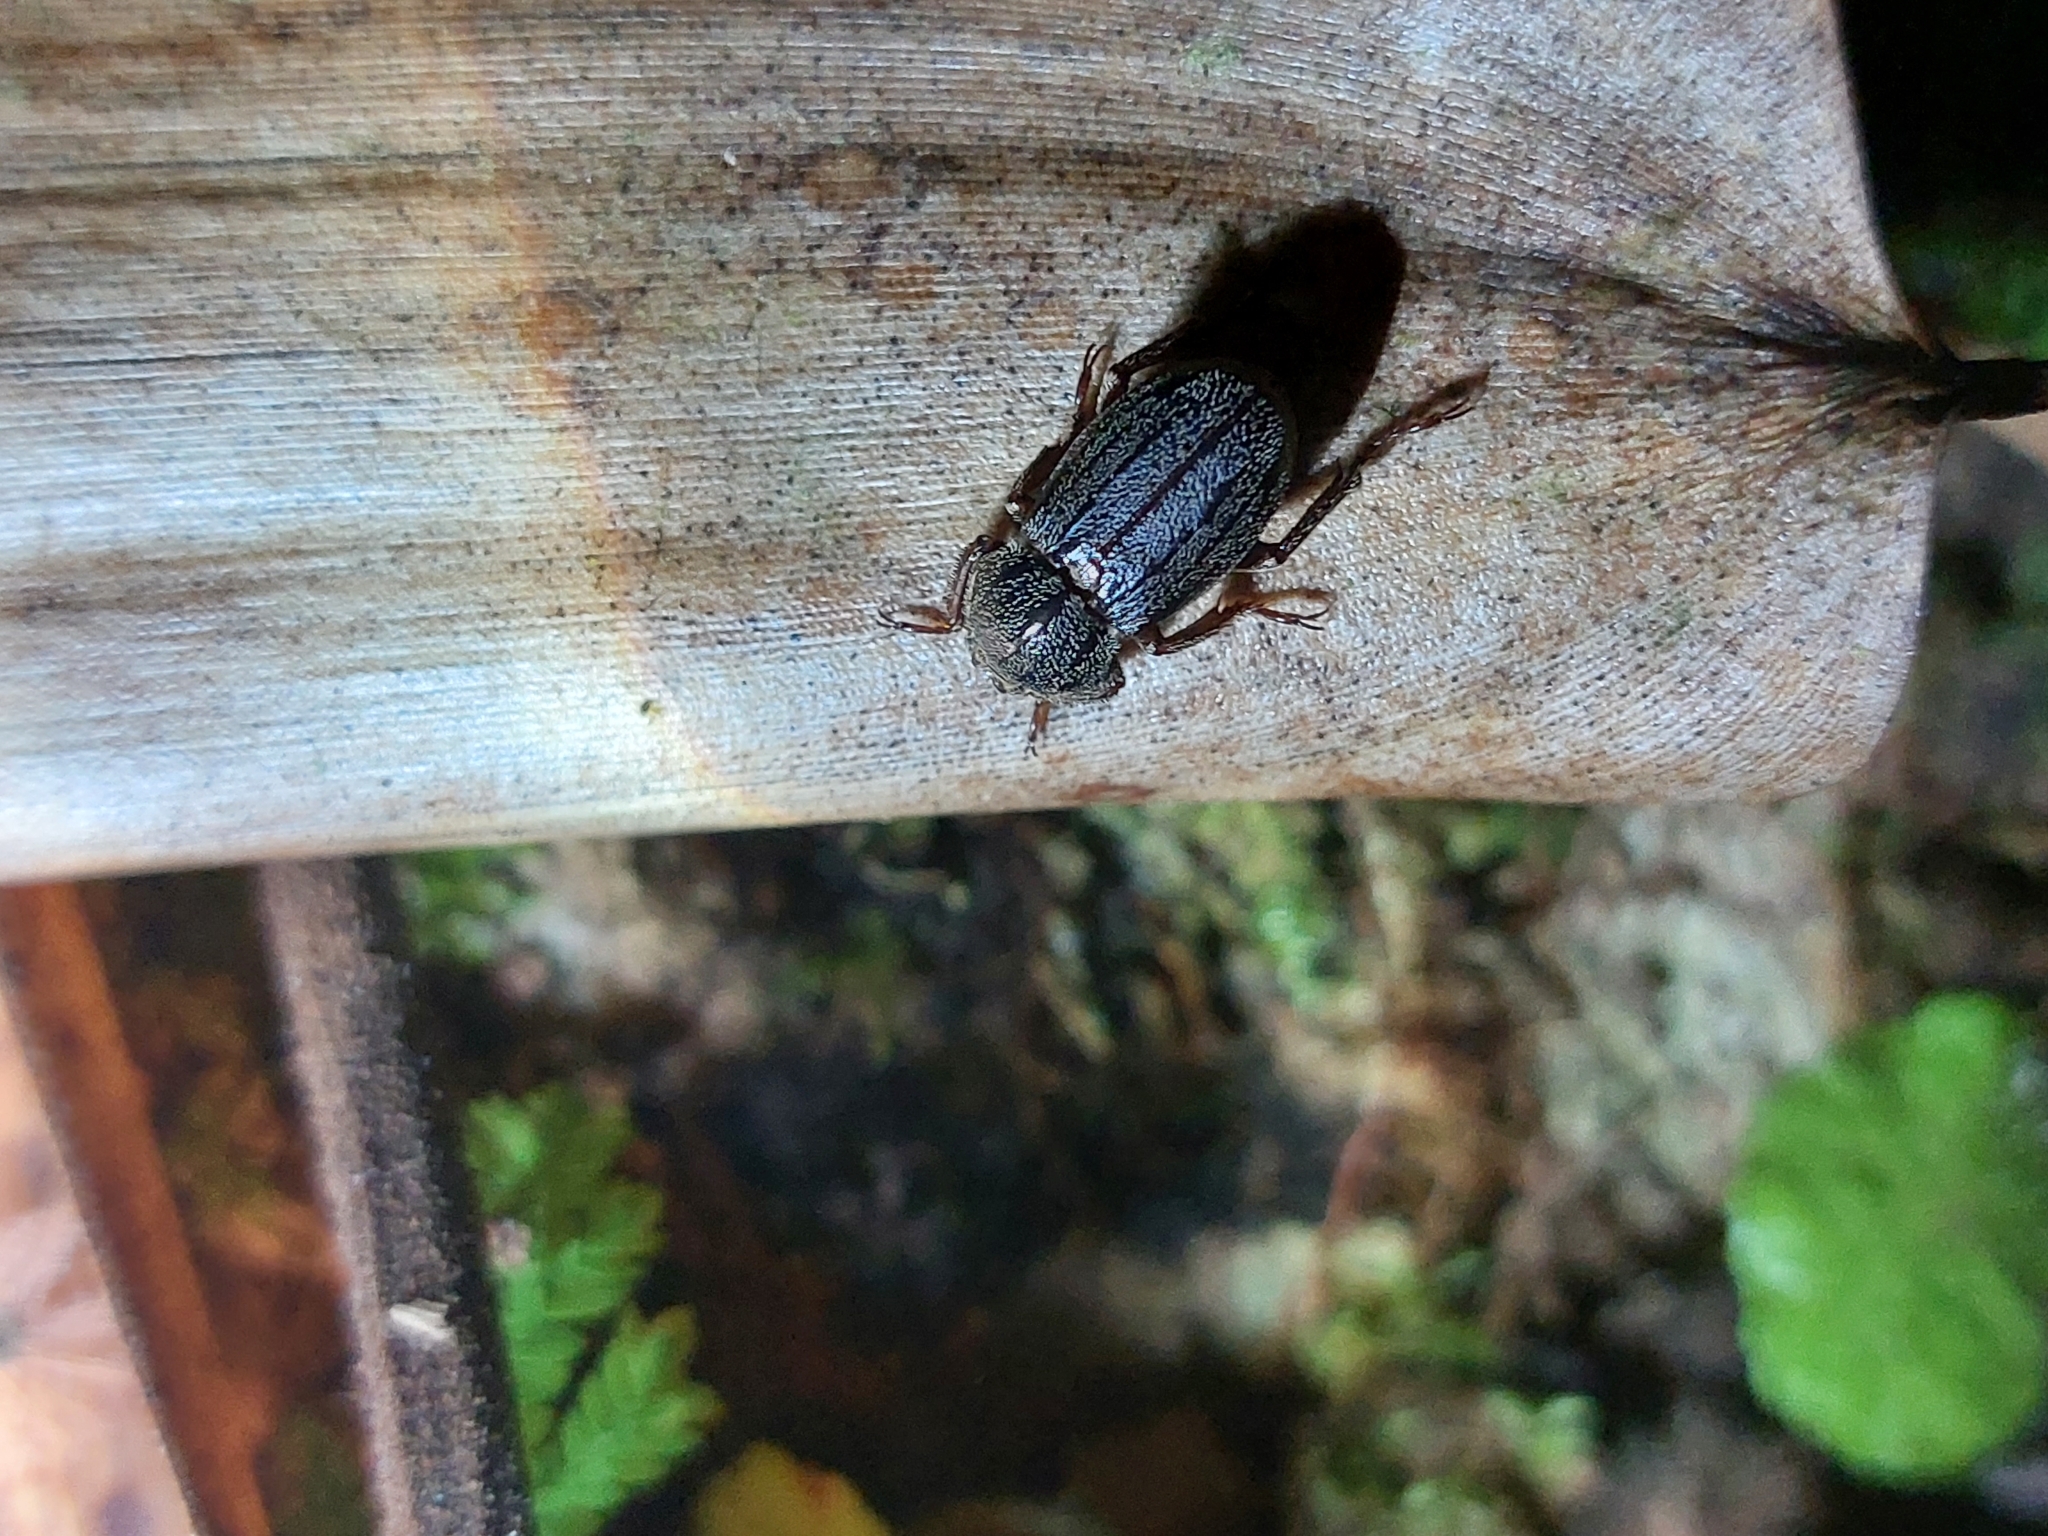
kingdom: Animalia
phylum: Arthropoda
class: Insecta
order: Coleoptera
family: Scarabaeidae
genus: Faula
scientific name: Faula centralis
